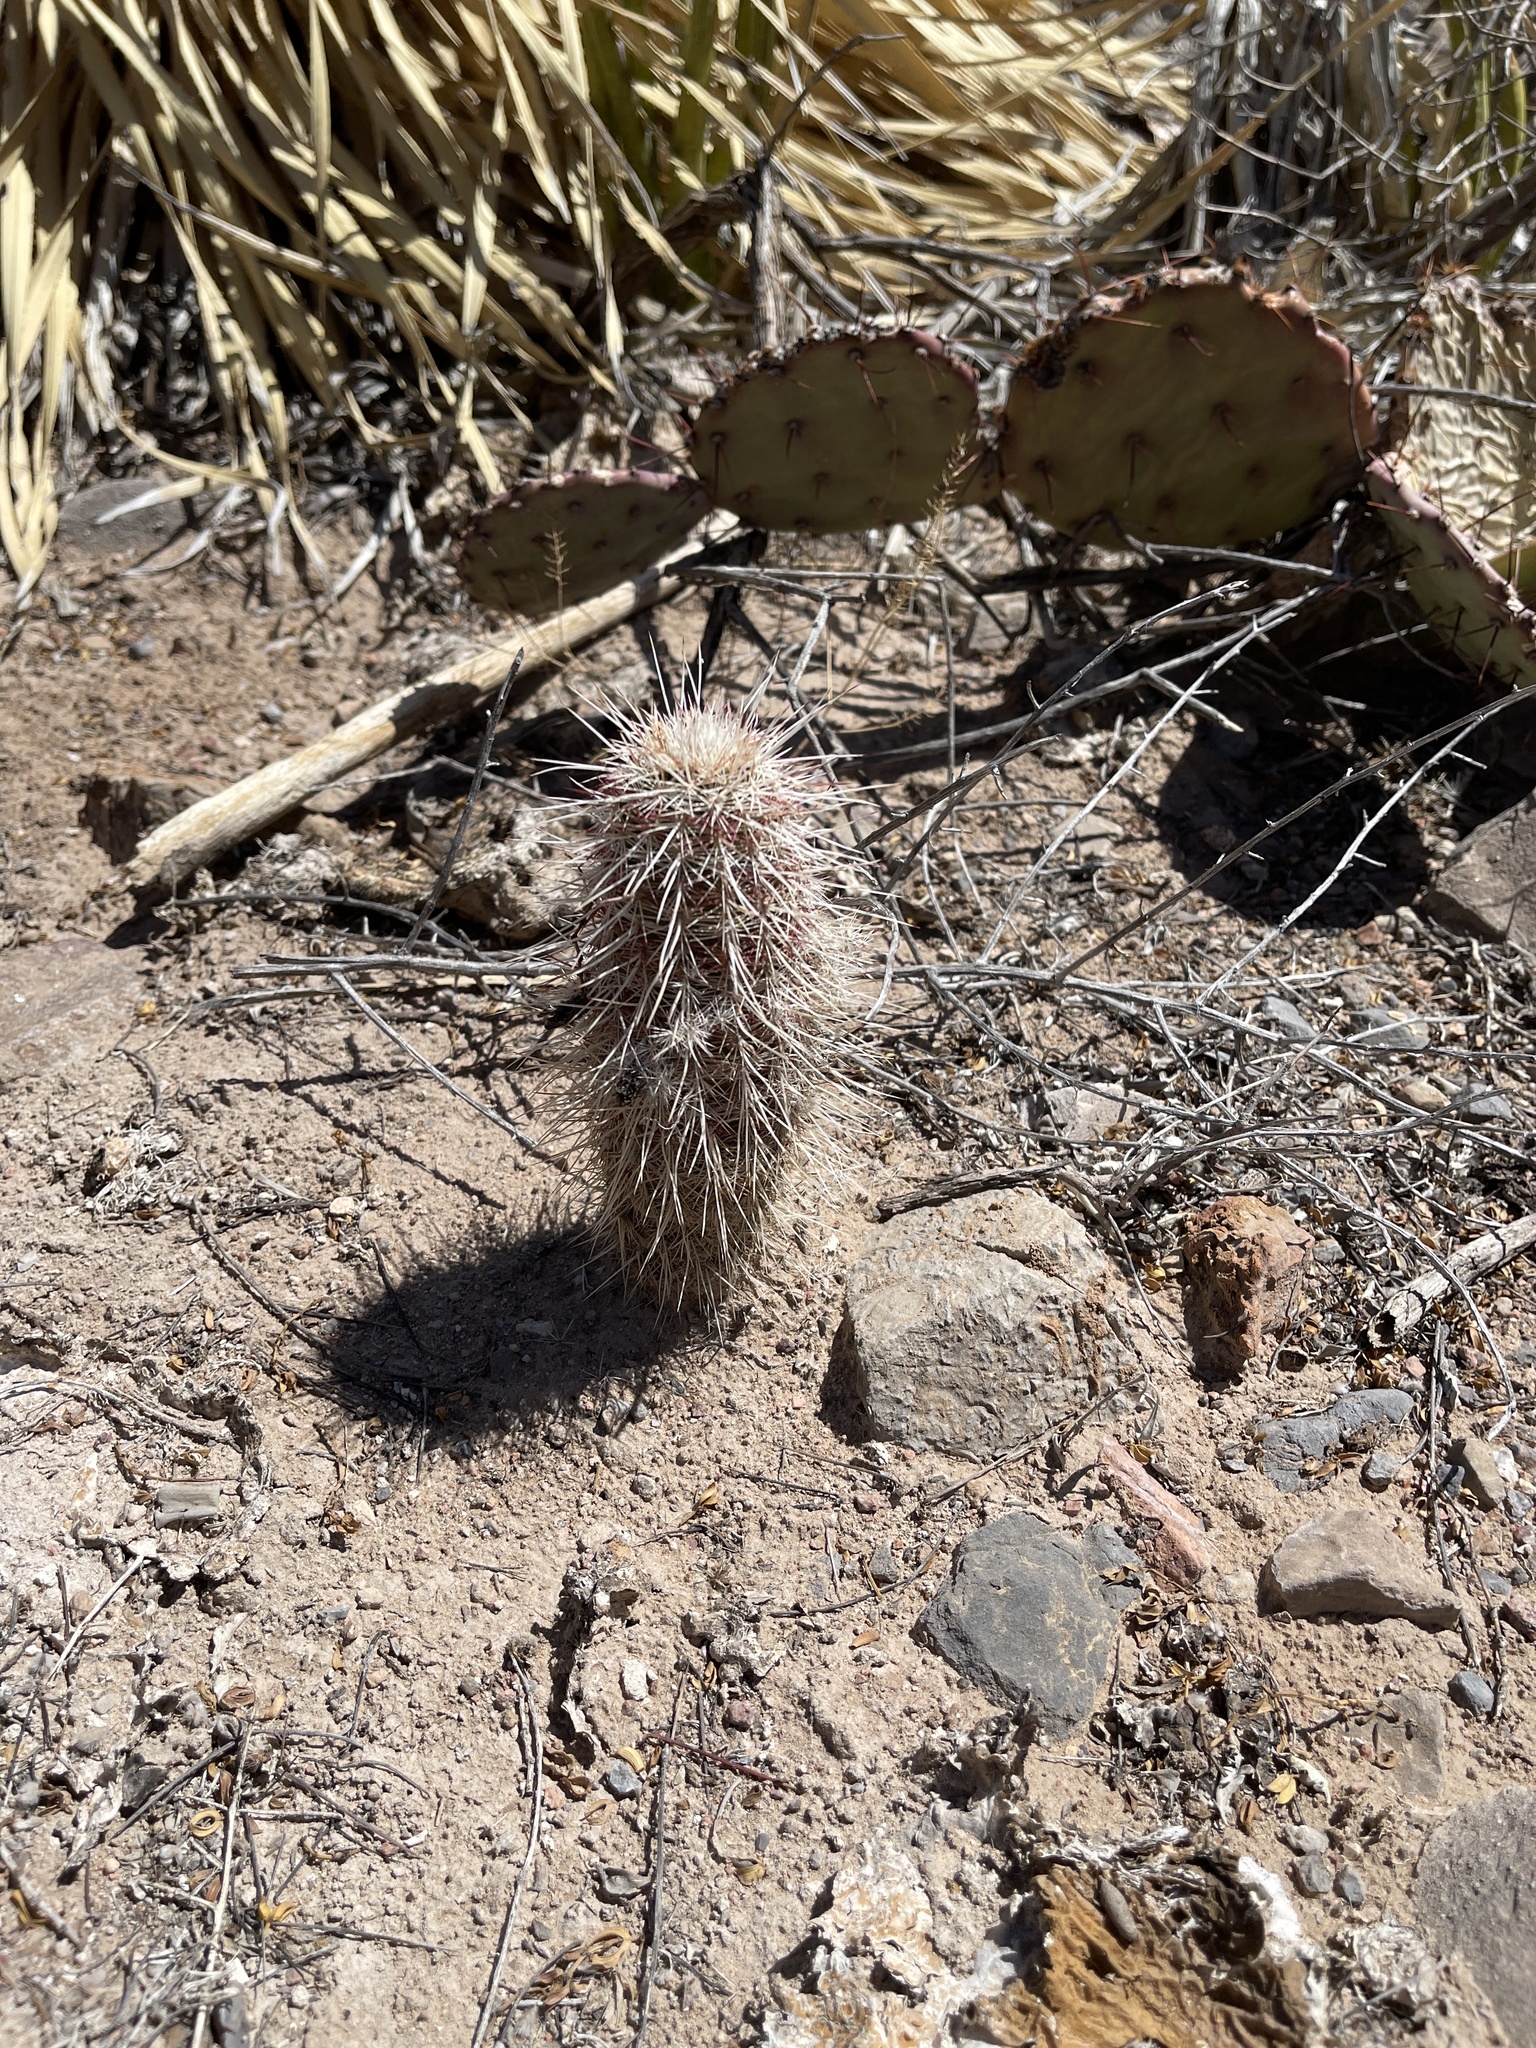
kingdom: Plantae
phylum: Tracheophyta
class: Magnoliopsida
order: Caryophyllales
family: Cactaceae
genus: Echinocereus
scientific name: Echinocereus viridiflorus
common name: Nylon hedgehog cactus
